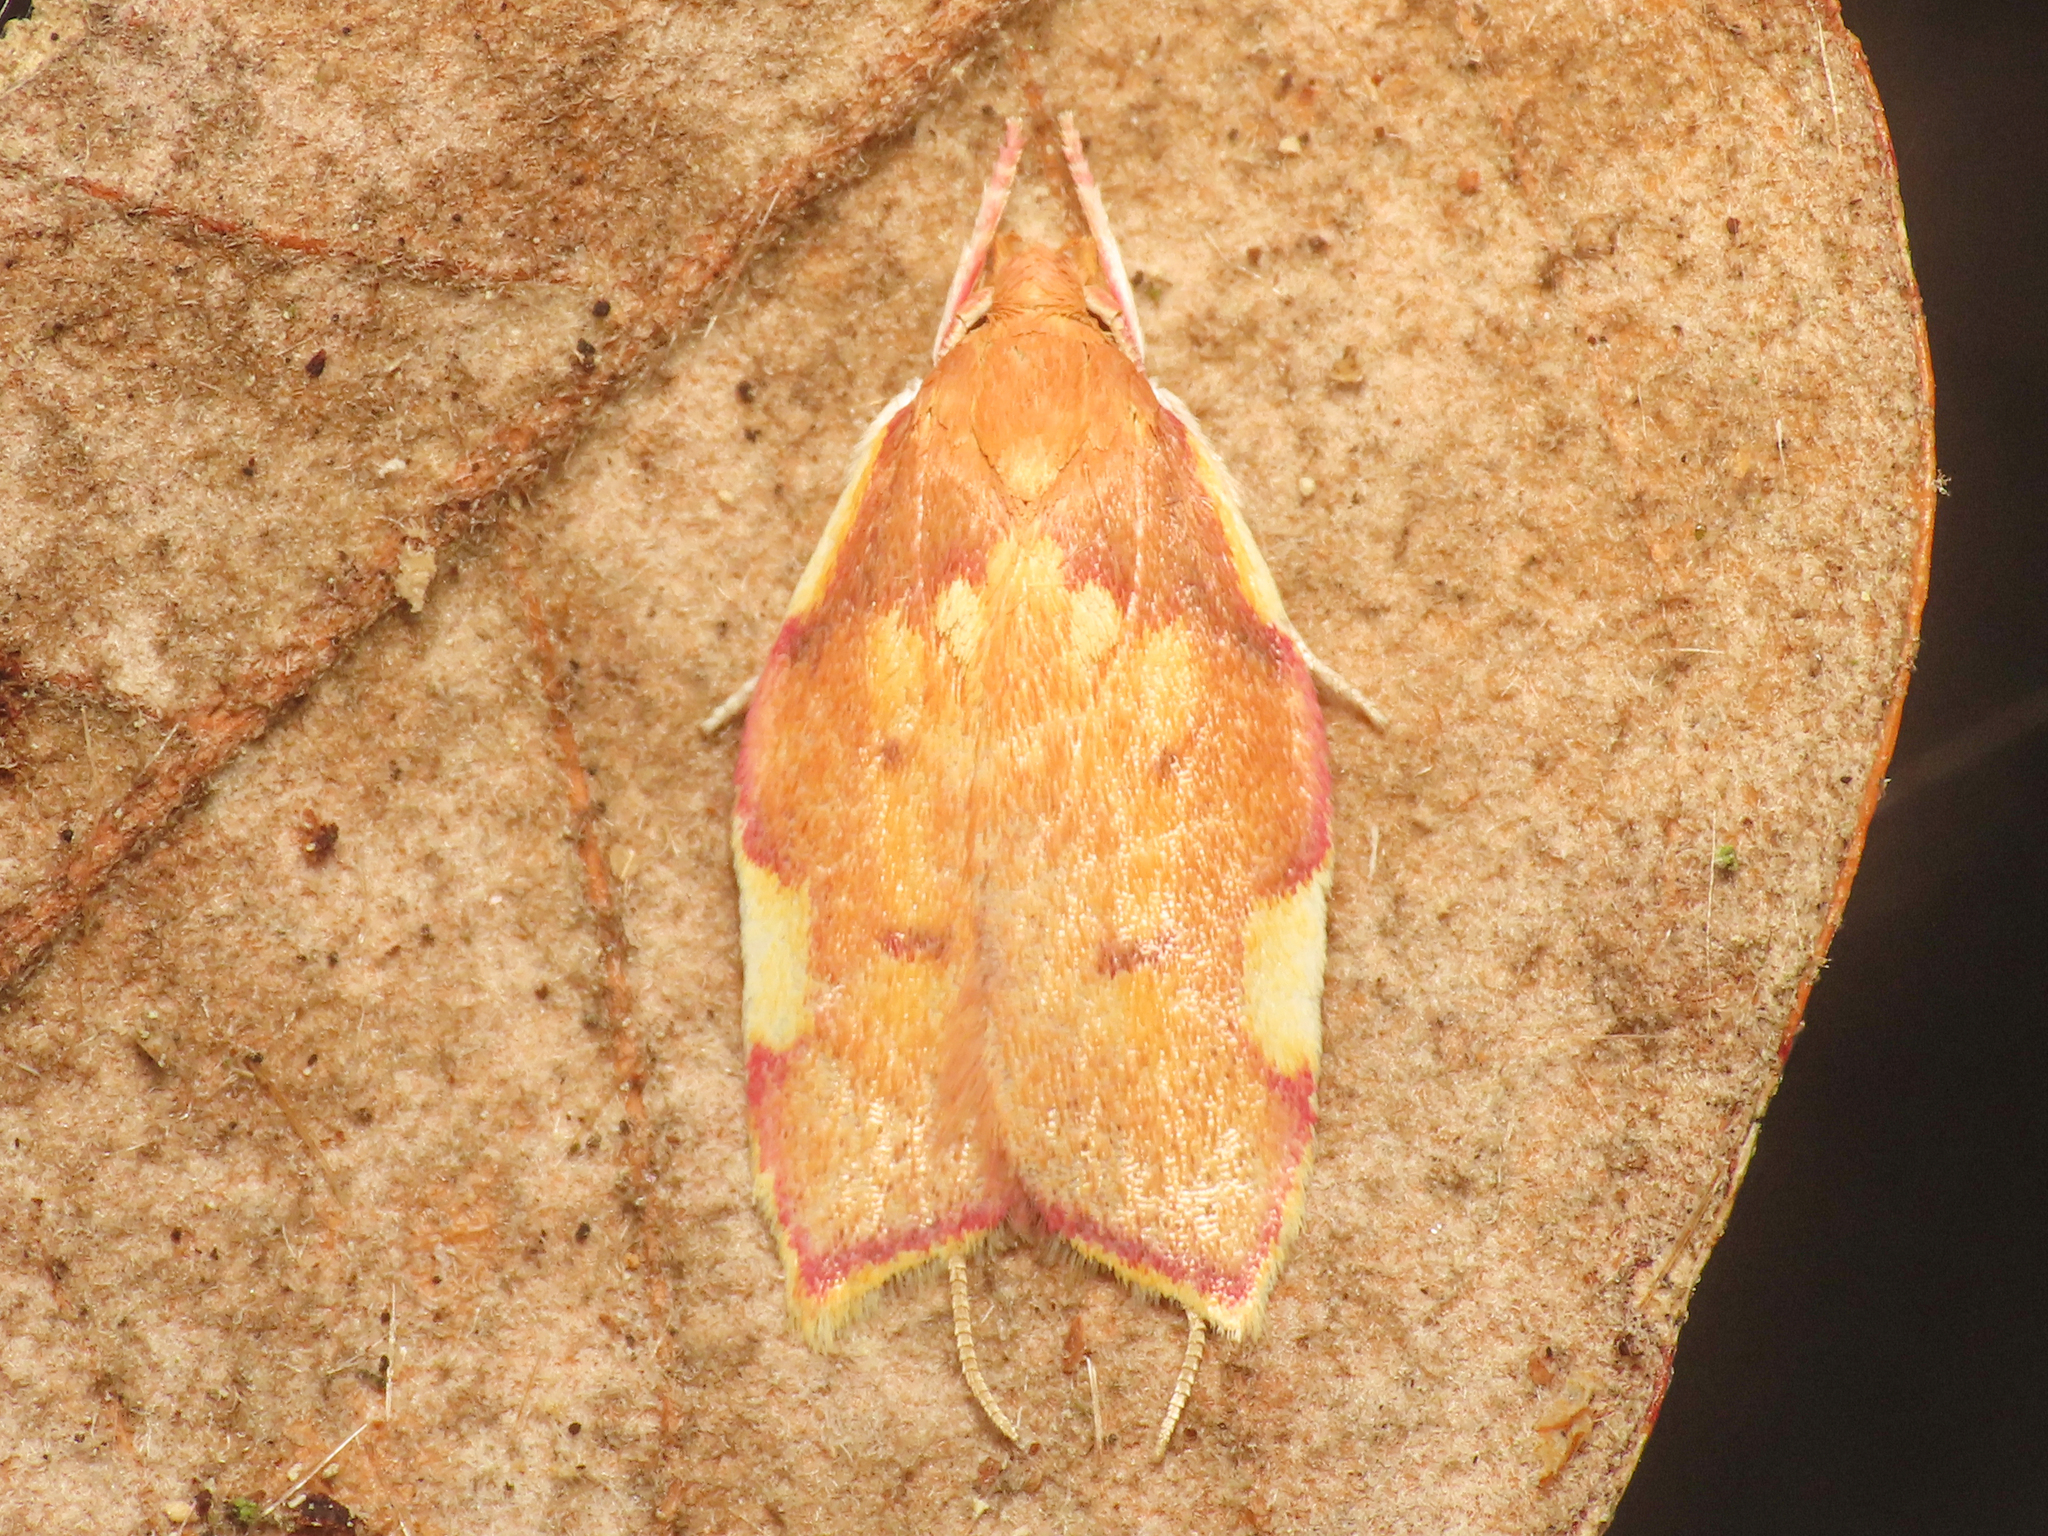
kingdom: Animalia
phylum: Arthropoda
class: Insecta
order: Lepidoptera
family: Peleopodidae
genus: Carcina
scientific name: Carcina quercana
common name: Moth
